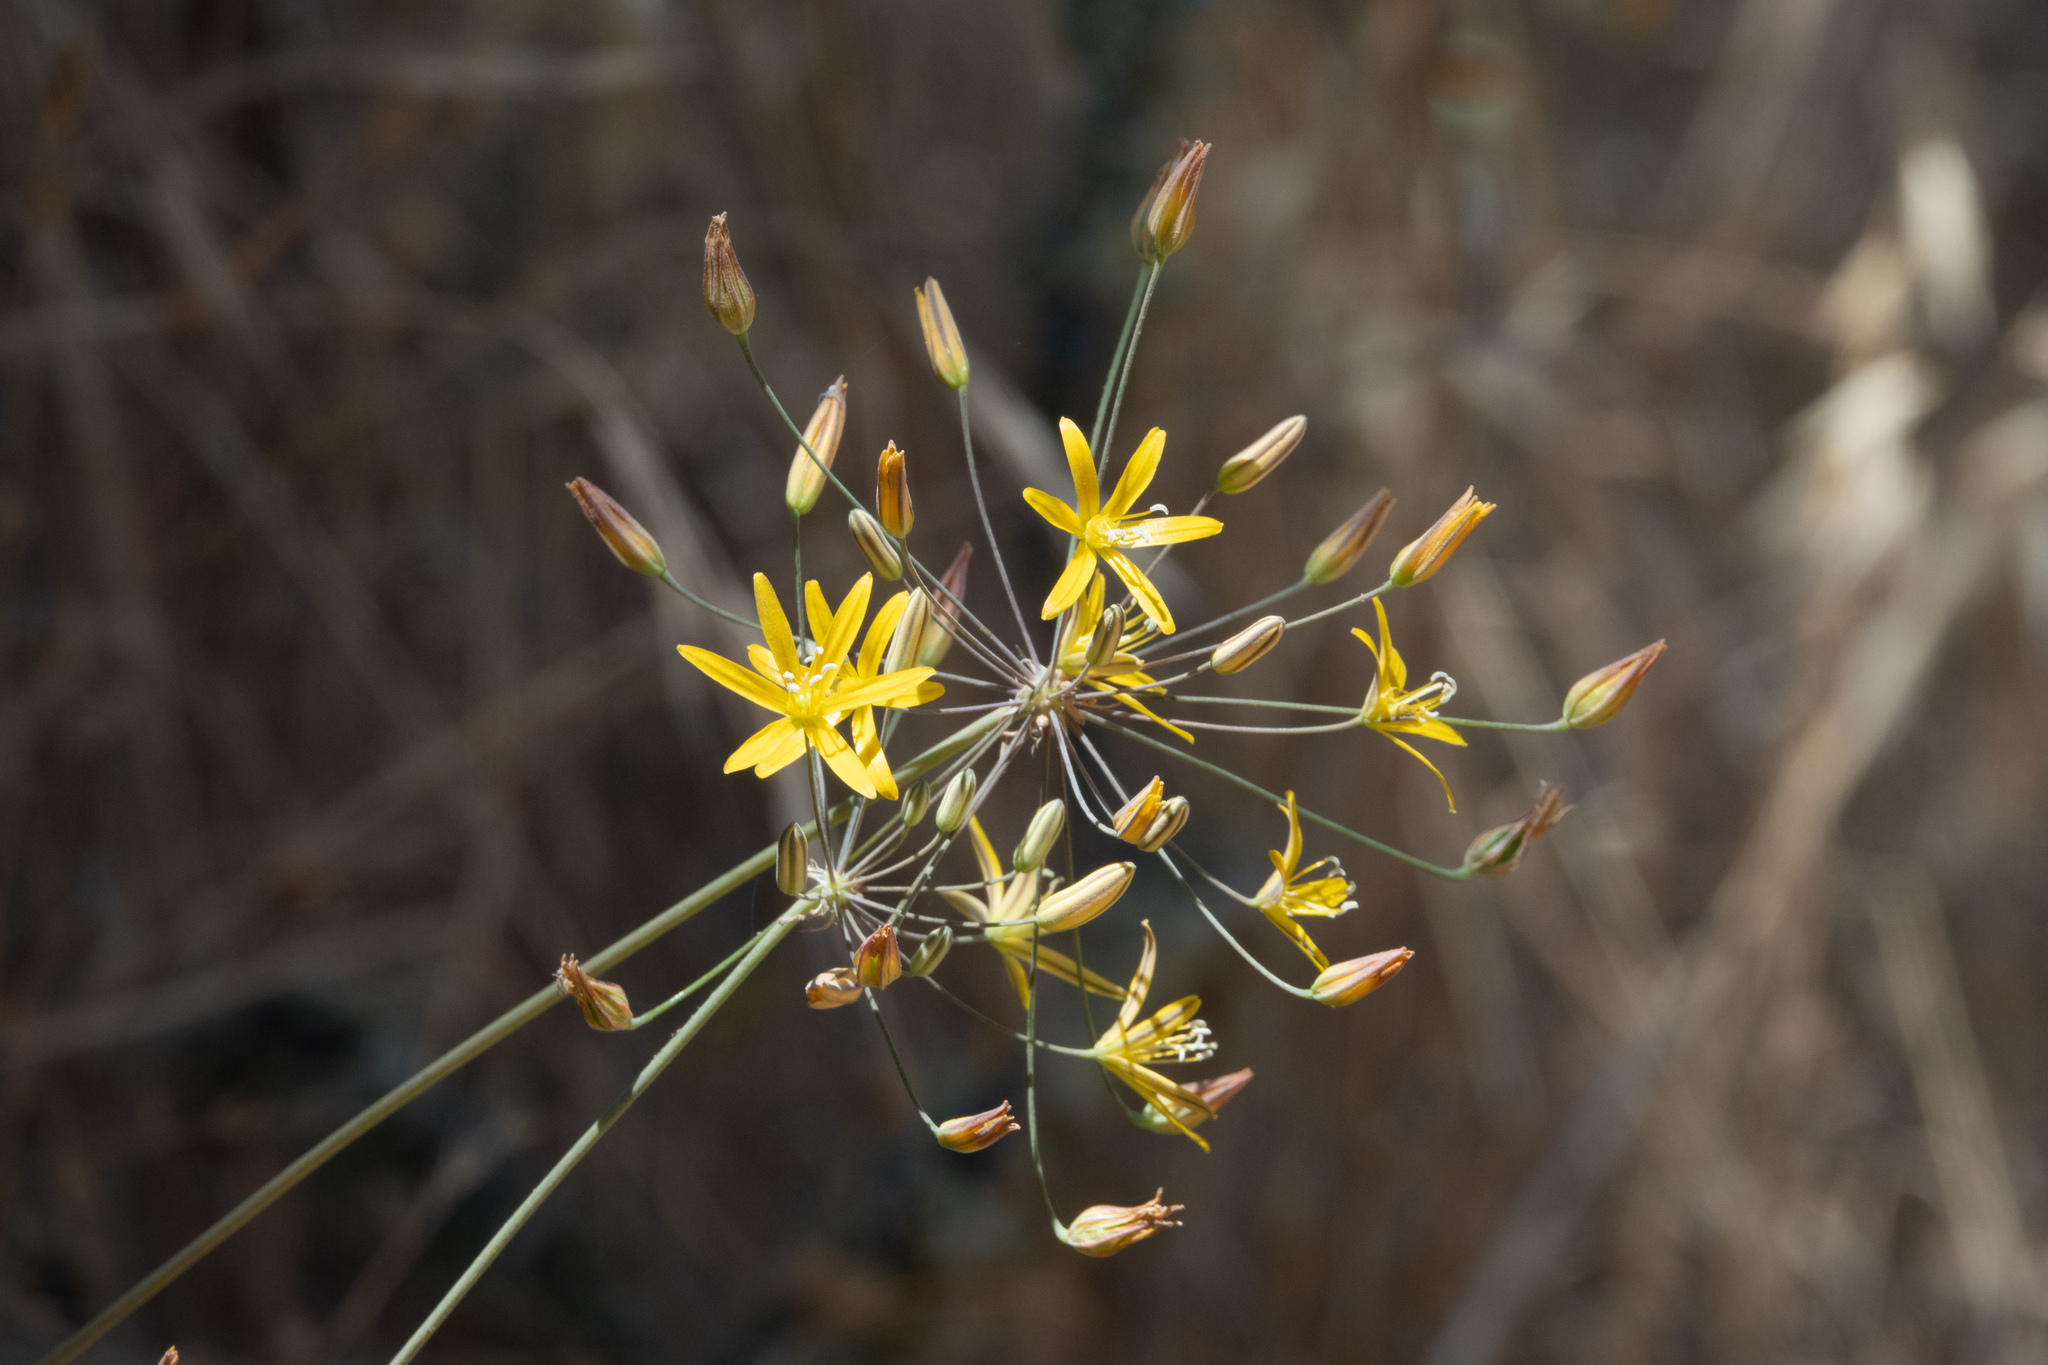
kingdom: Plantae
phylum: Tracheophyta
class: Liliopsida
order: Asparagales
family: Asparagaceae
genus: Bloomeria
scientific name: Bloomeria crocea
